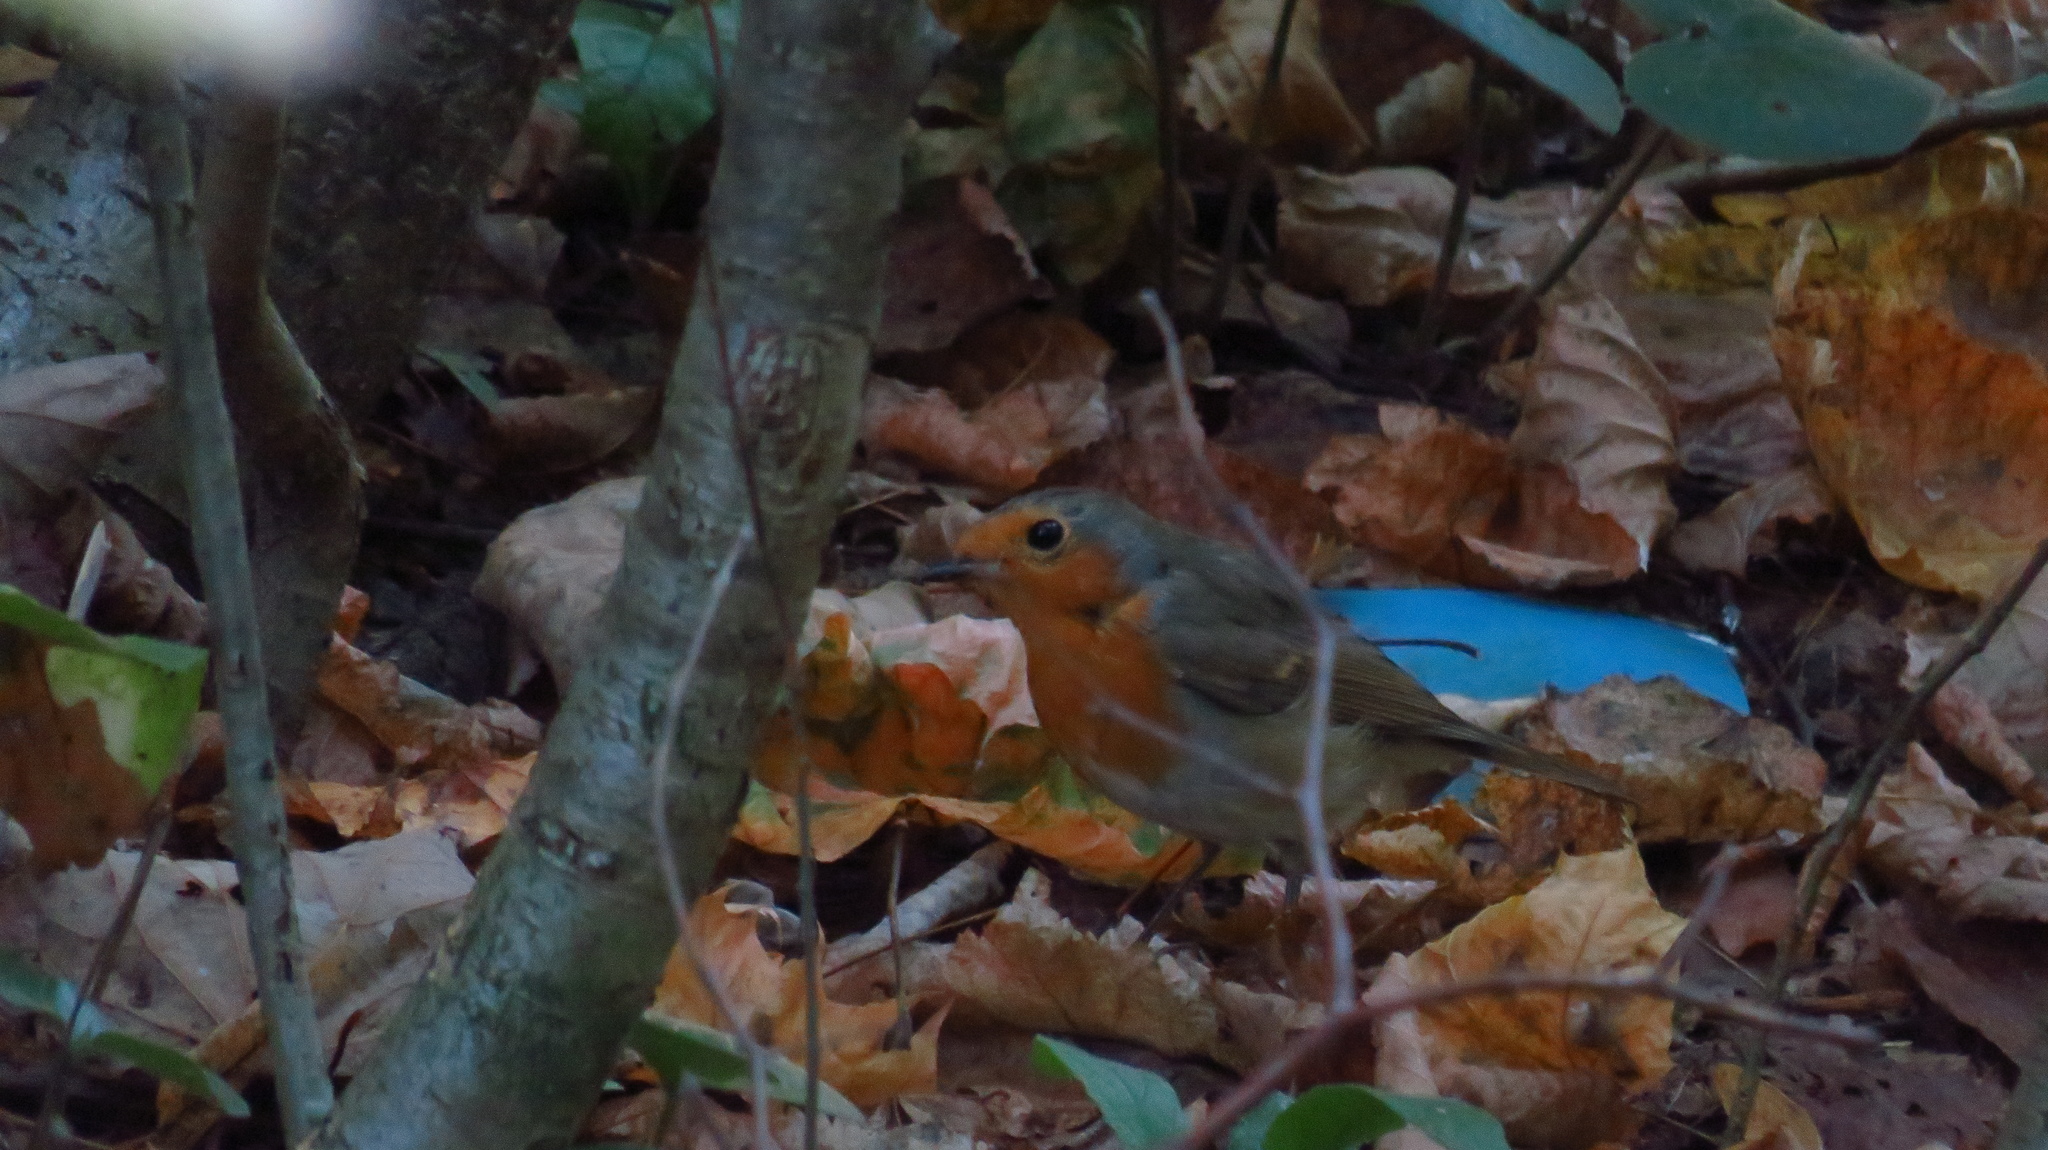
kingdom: Animalia
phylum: Chordata
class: Aves
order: Passeriformes
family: Muscicapidae
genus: Erithacus
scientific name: Erithacus rubecula
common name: European robin
